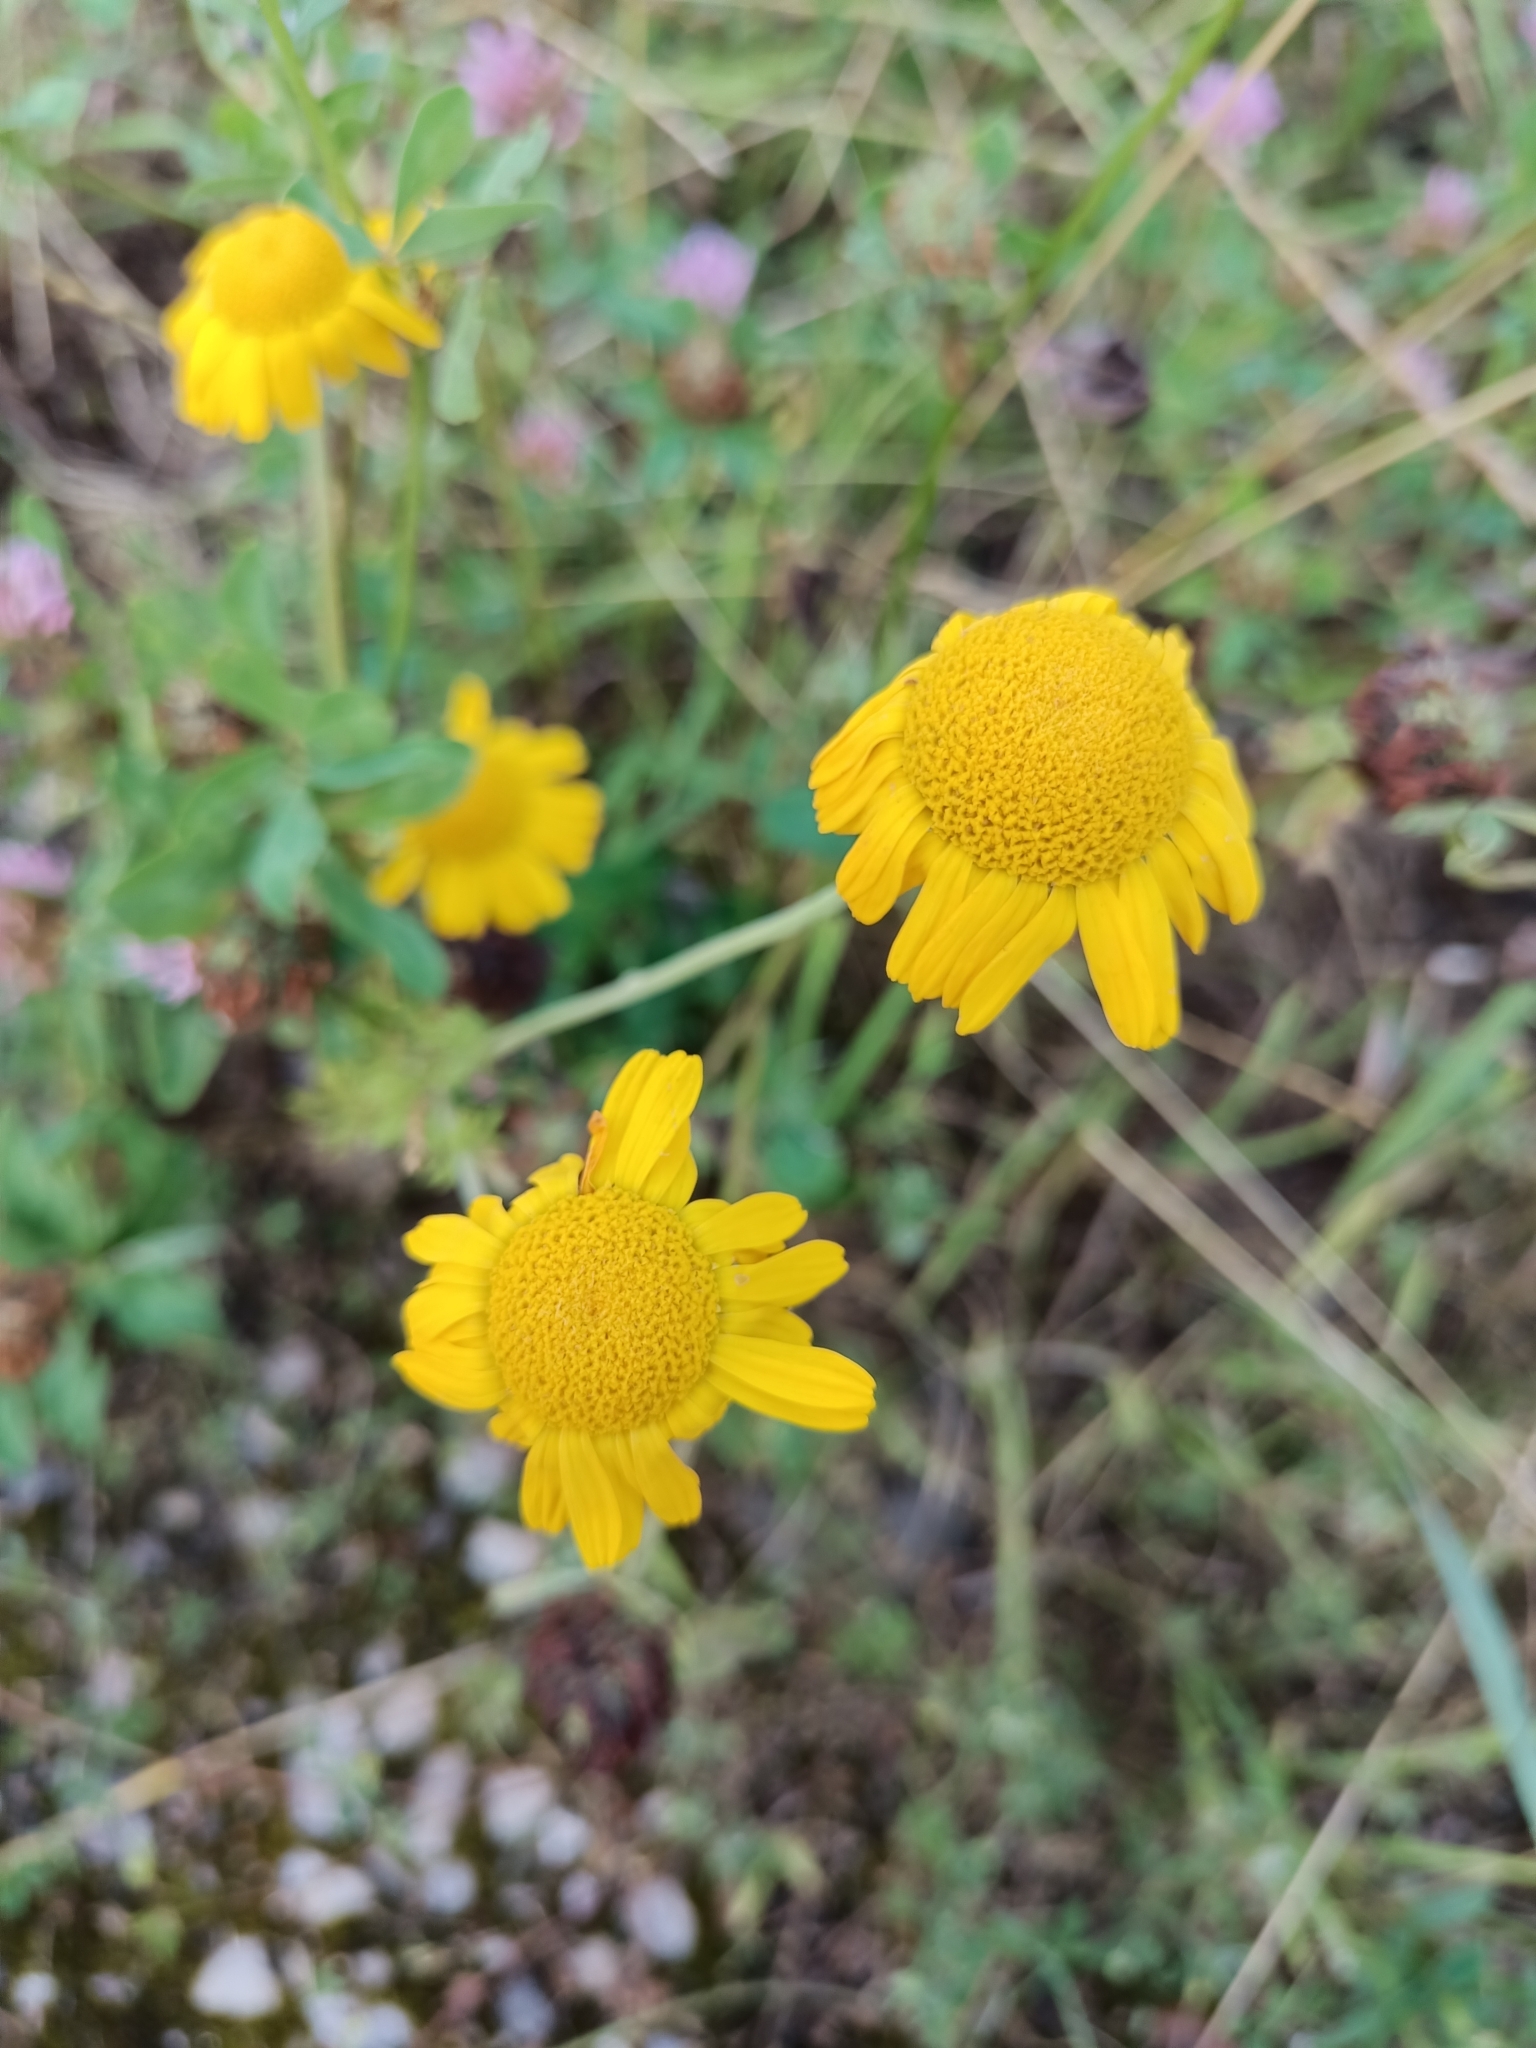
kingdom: Plantae
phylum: Tracheophyta
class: Magnoliopsida
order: Asterales
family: Asteraceae
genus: Cota
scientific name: Cota tinctoria
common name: Golden chamomile
